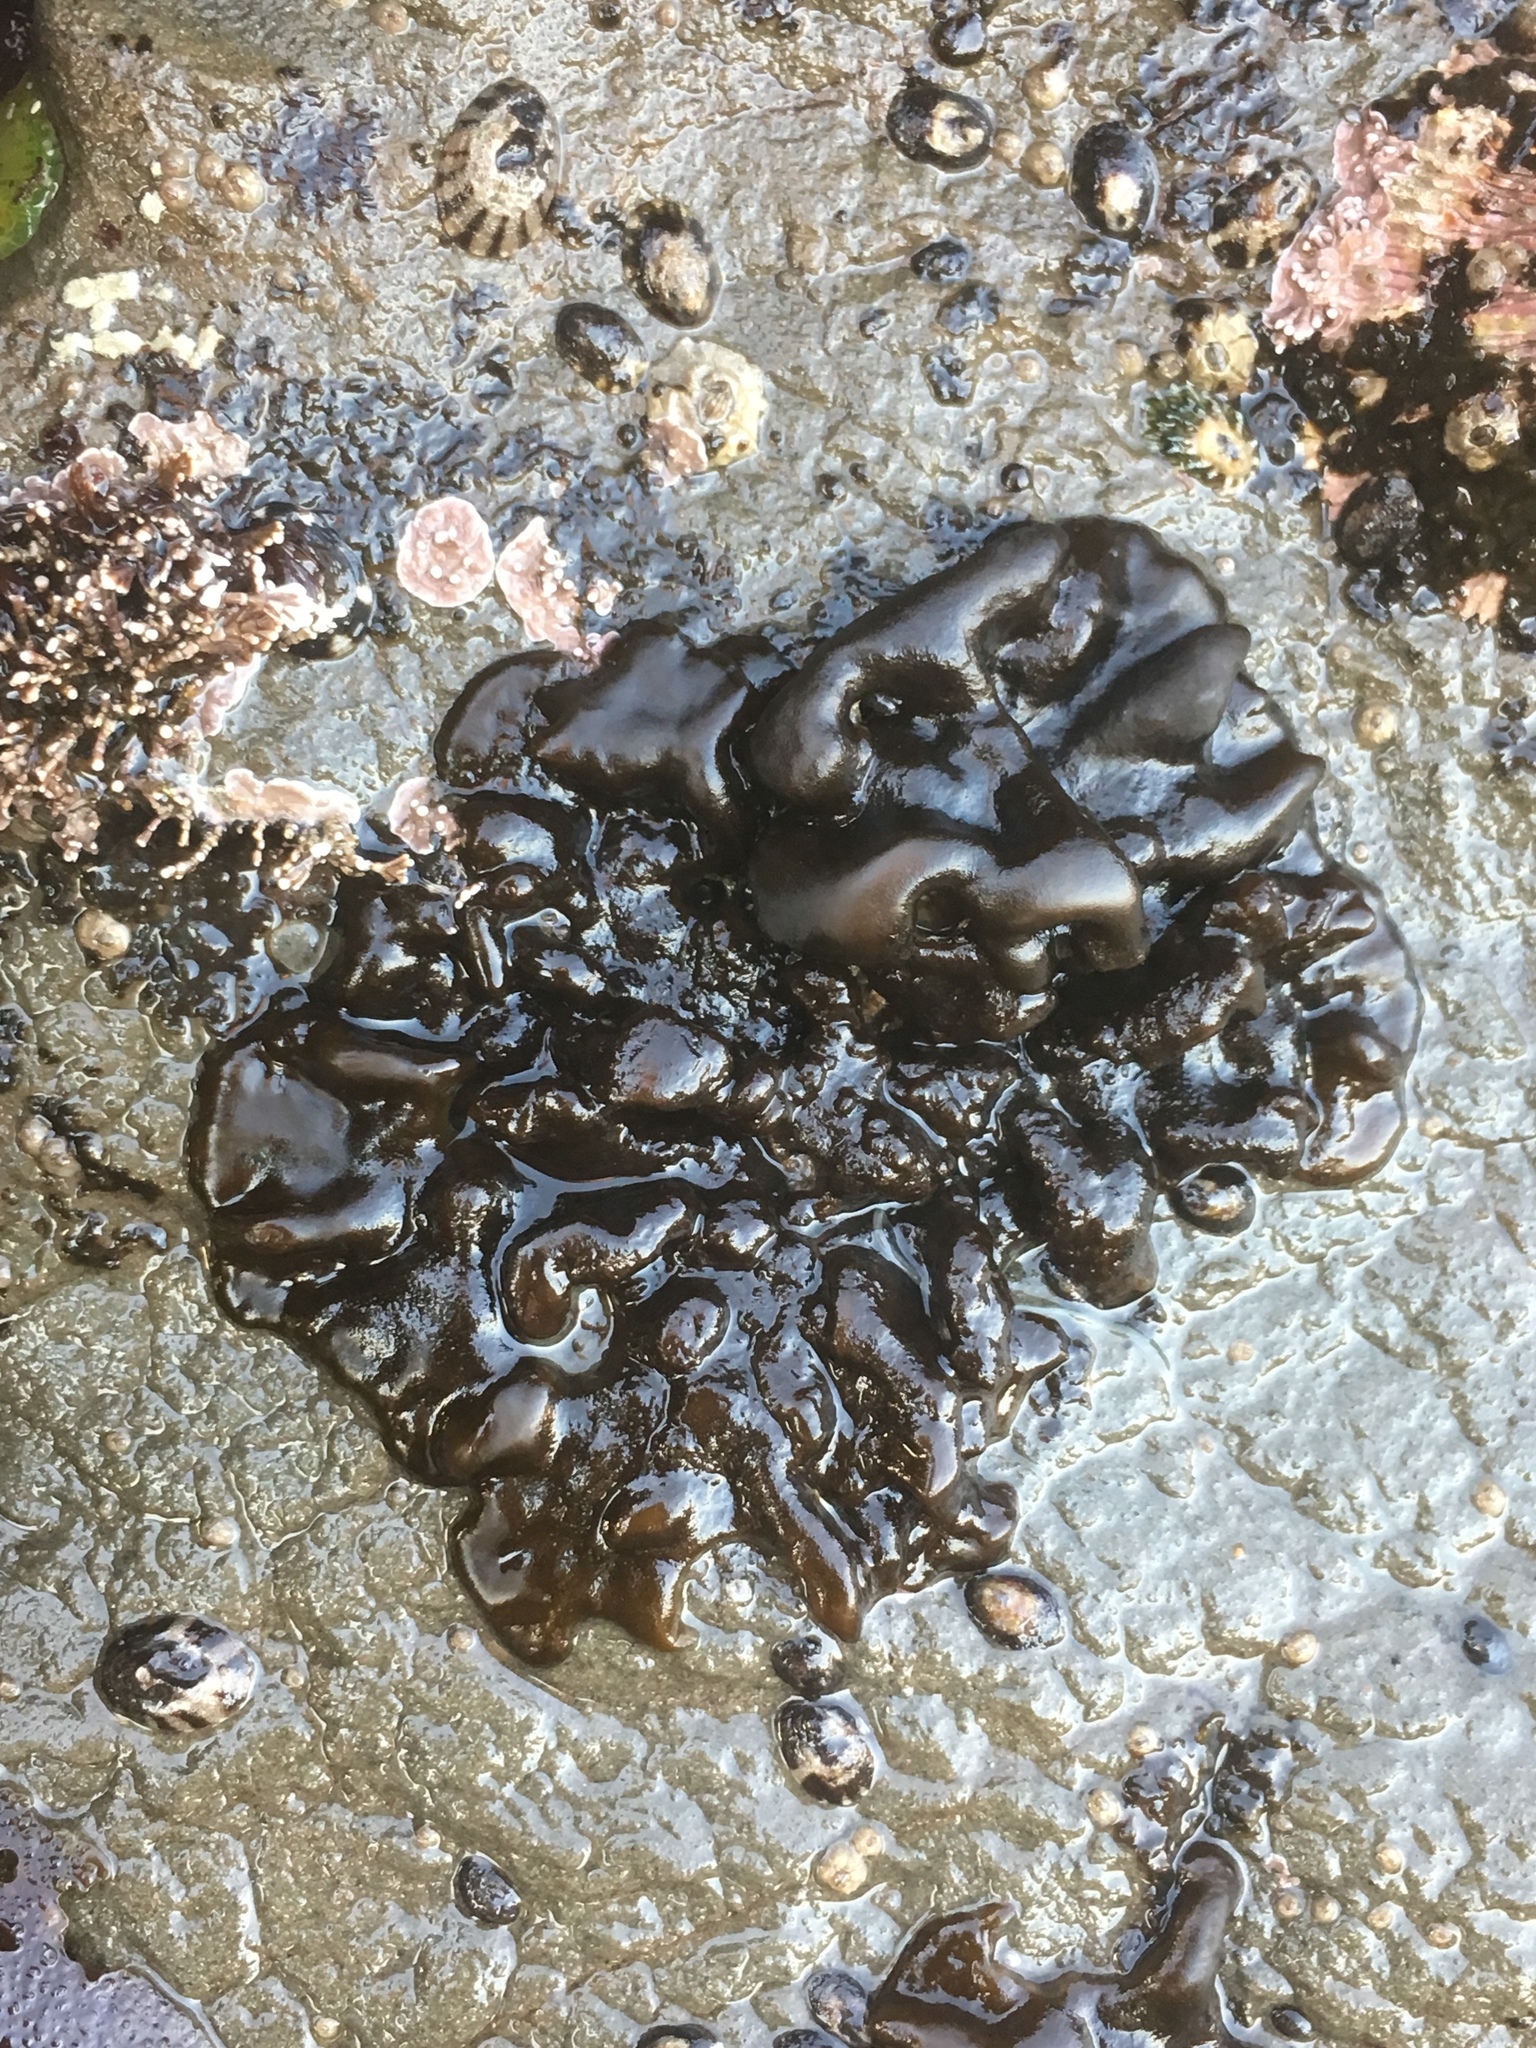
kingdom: Chromista
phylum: Ochrophyta
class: Phaeophyceae
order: Ectocarpales
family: Petrospongiaceae
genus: Petrospongium
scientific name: Petrospongium rugosum
